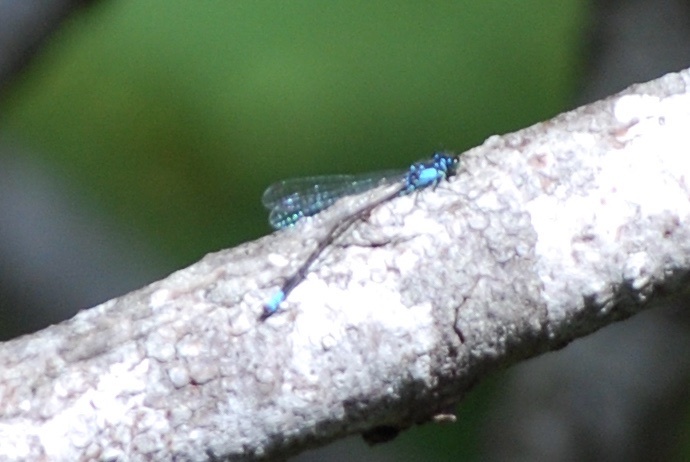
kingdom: Animalia
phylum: Arthropoda
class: Insecta
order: Odonata
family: Coenagrionidae
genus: Ischnura
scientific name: Ischnura cervula
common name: Pacific forktail
